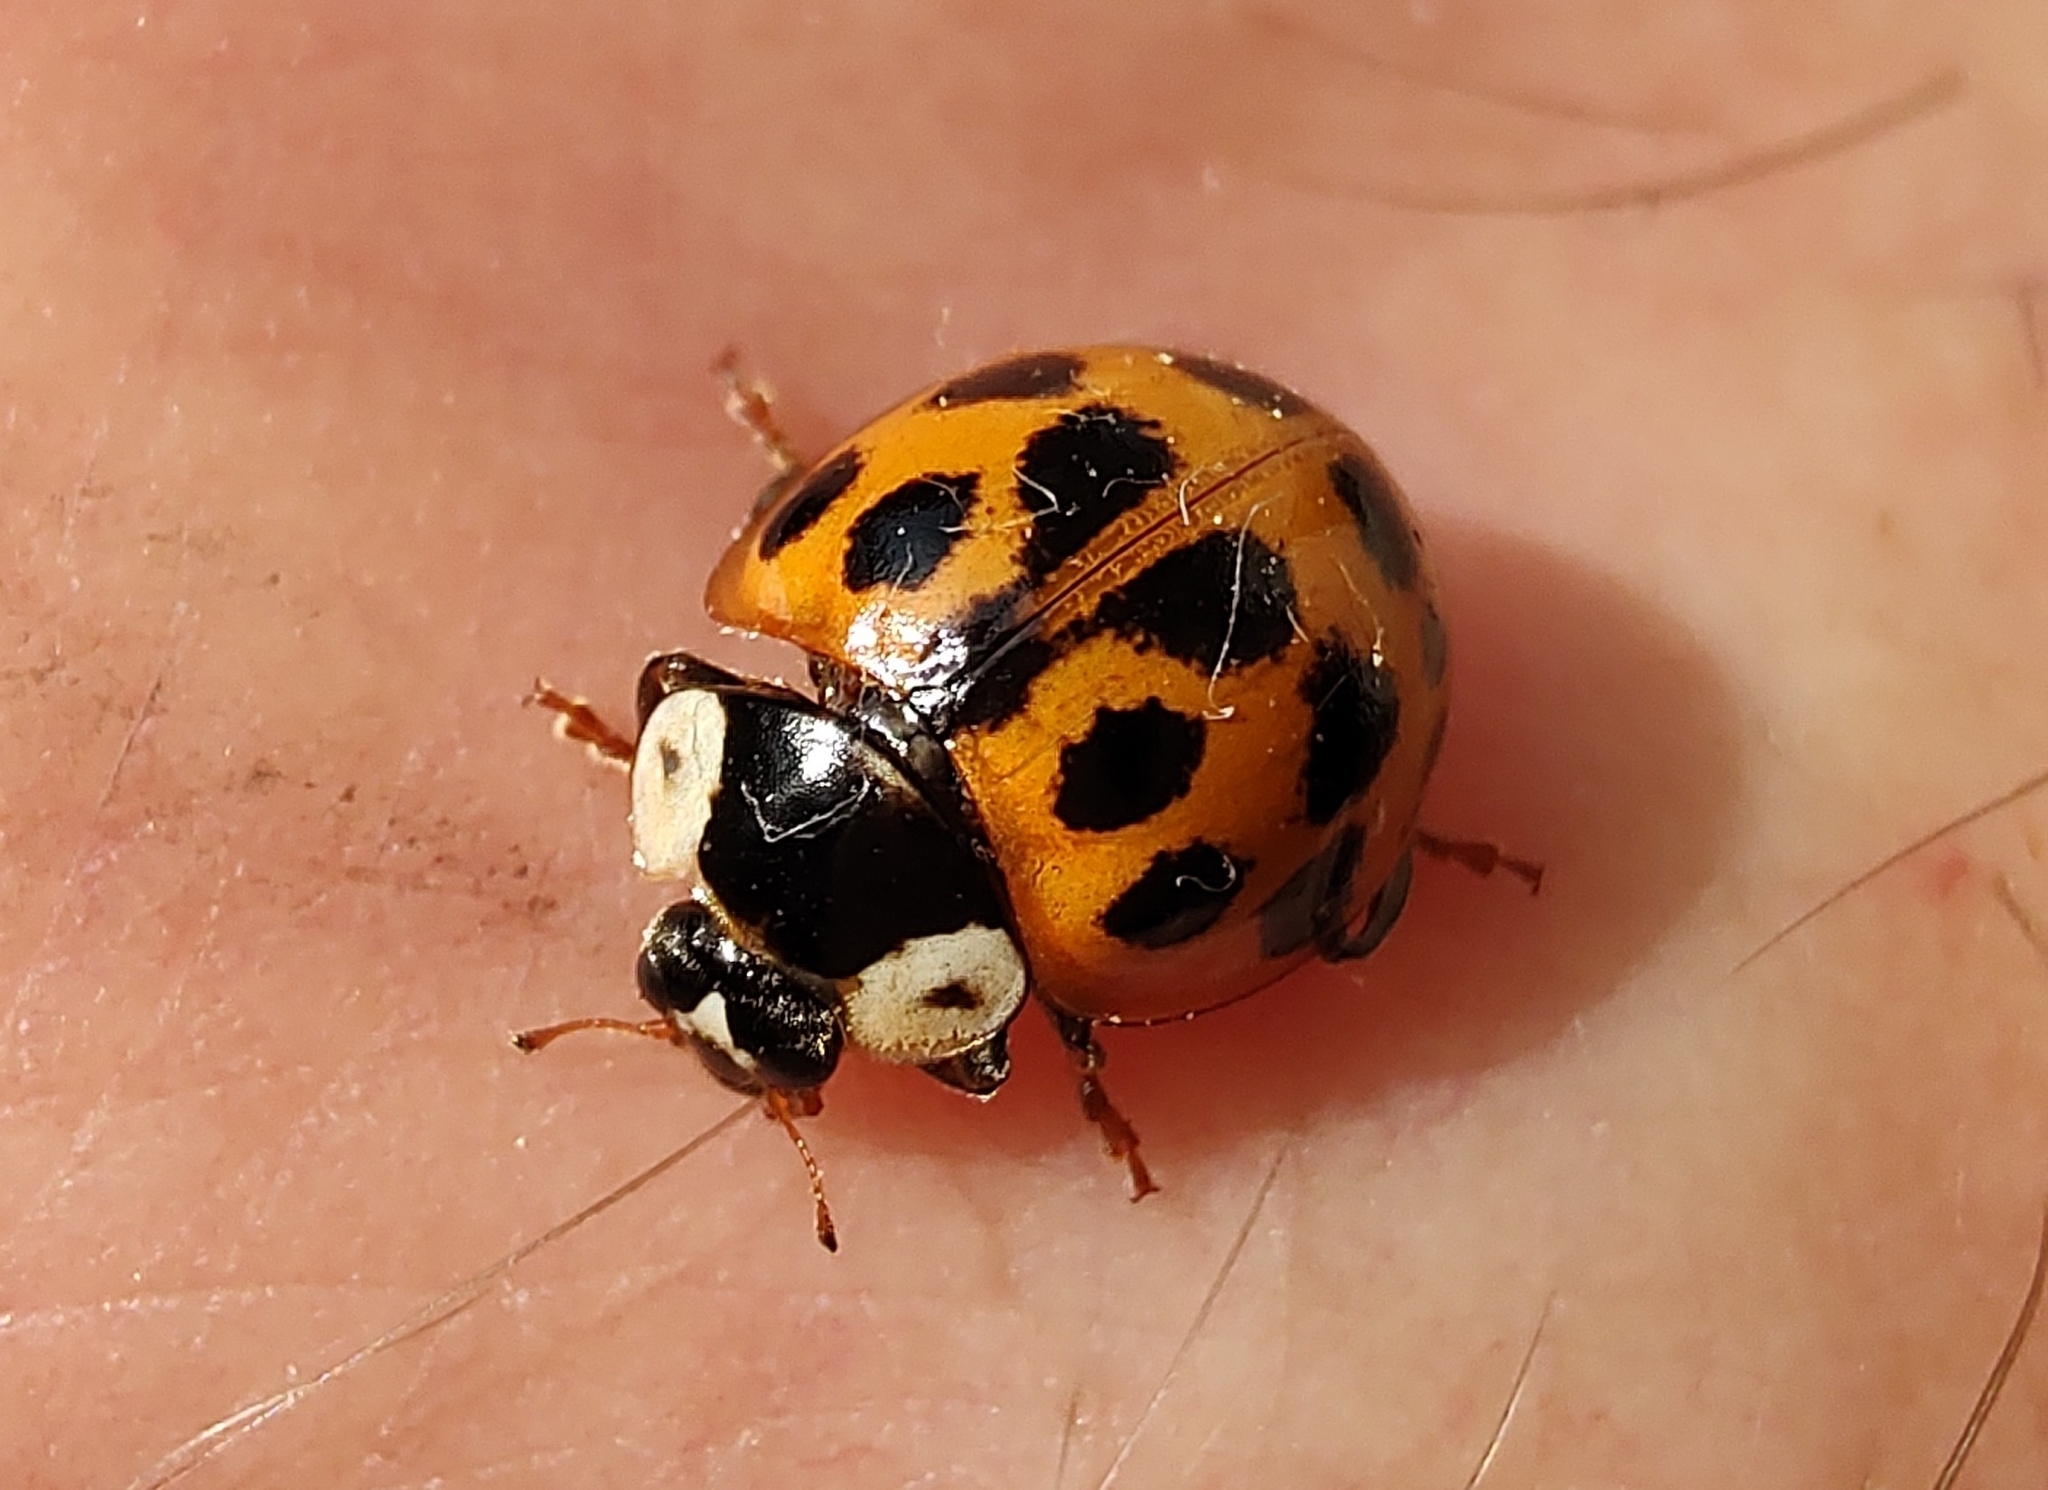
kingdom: Animalia
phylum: Arthropoda
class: Insecta
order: Coleoptera
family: Coccinellidae
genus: Harmonia
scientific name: Harmonia axyridis
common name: Harlequin ladybird
